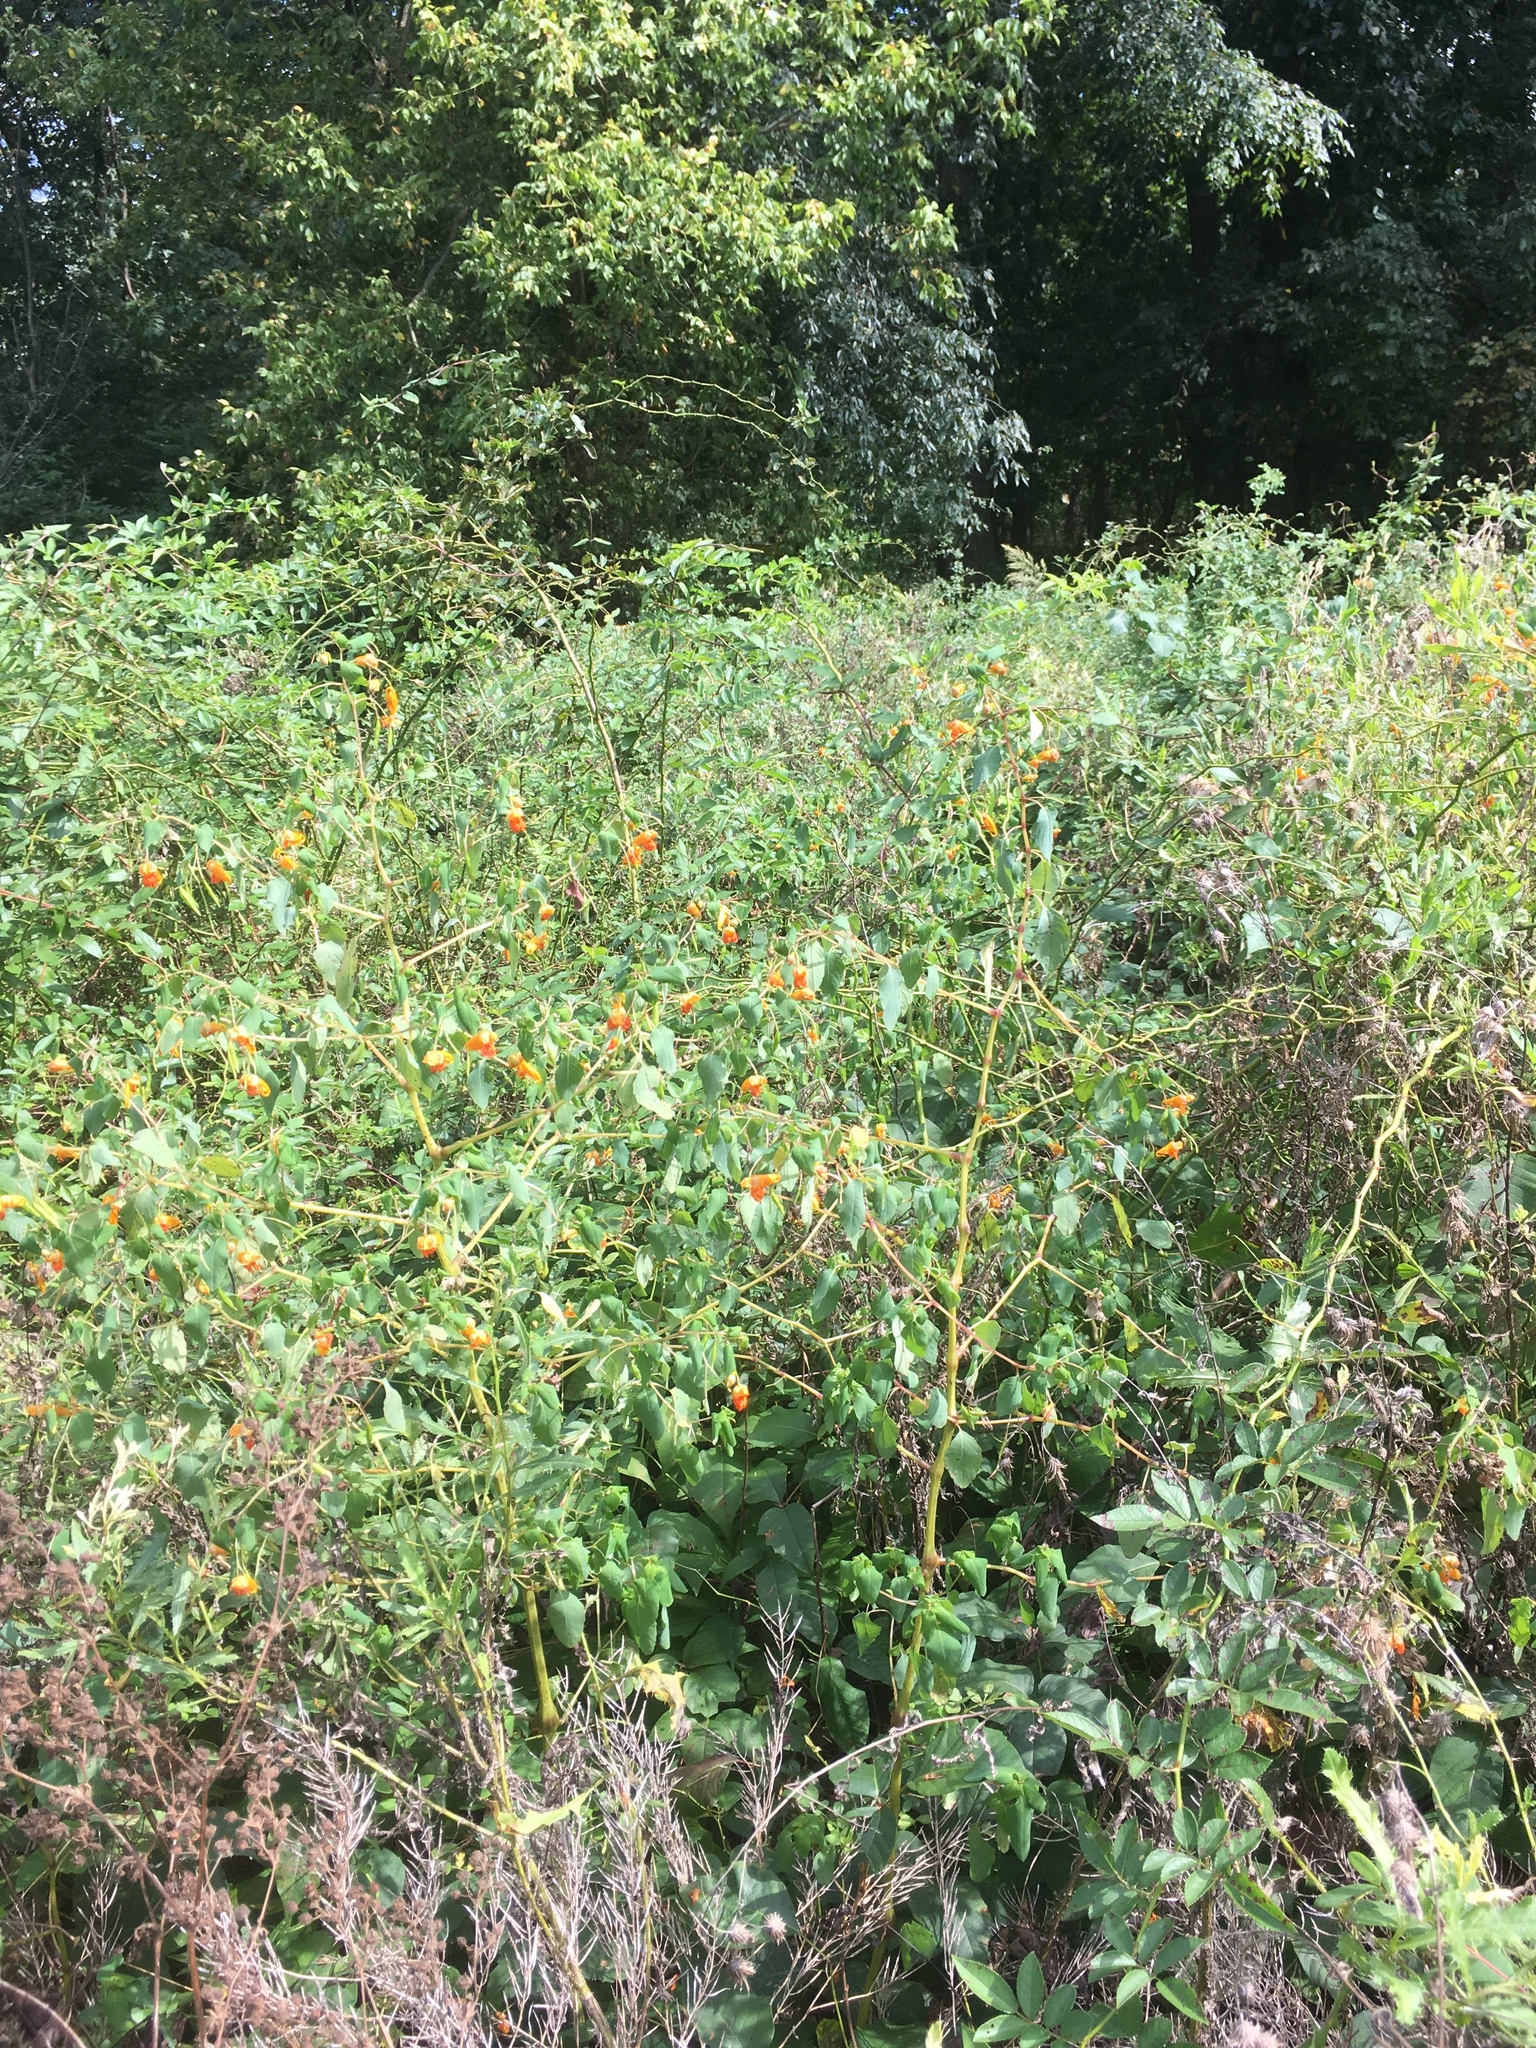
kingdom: Plantae
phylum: Tracheophyta
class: Magnoliopsida
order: Ericales
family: Balsaminaceae
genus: Impatiens
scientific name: Impatiens capensis
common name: Orange balsam
